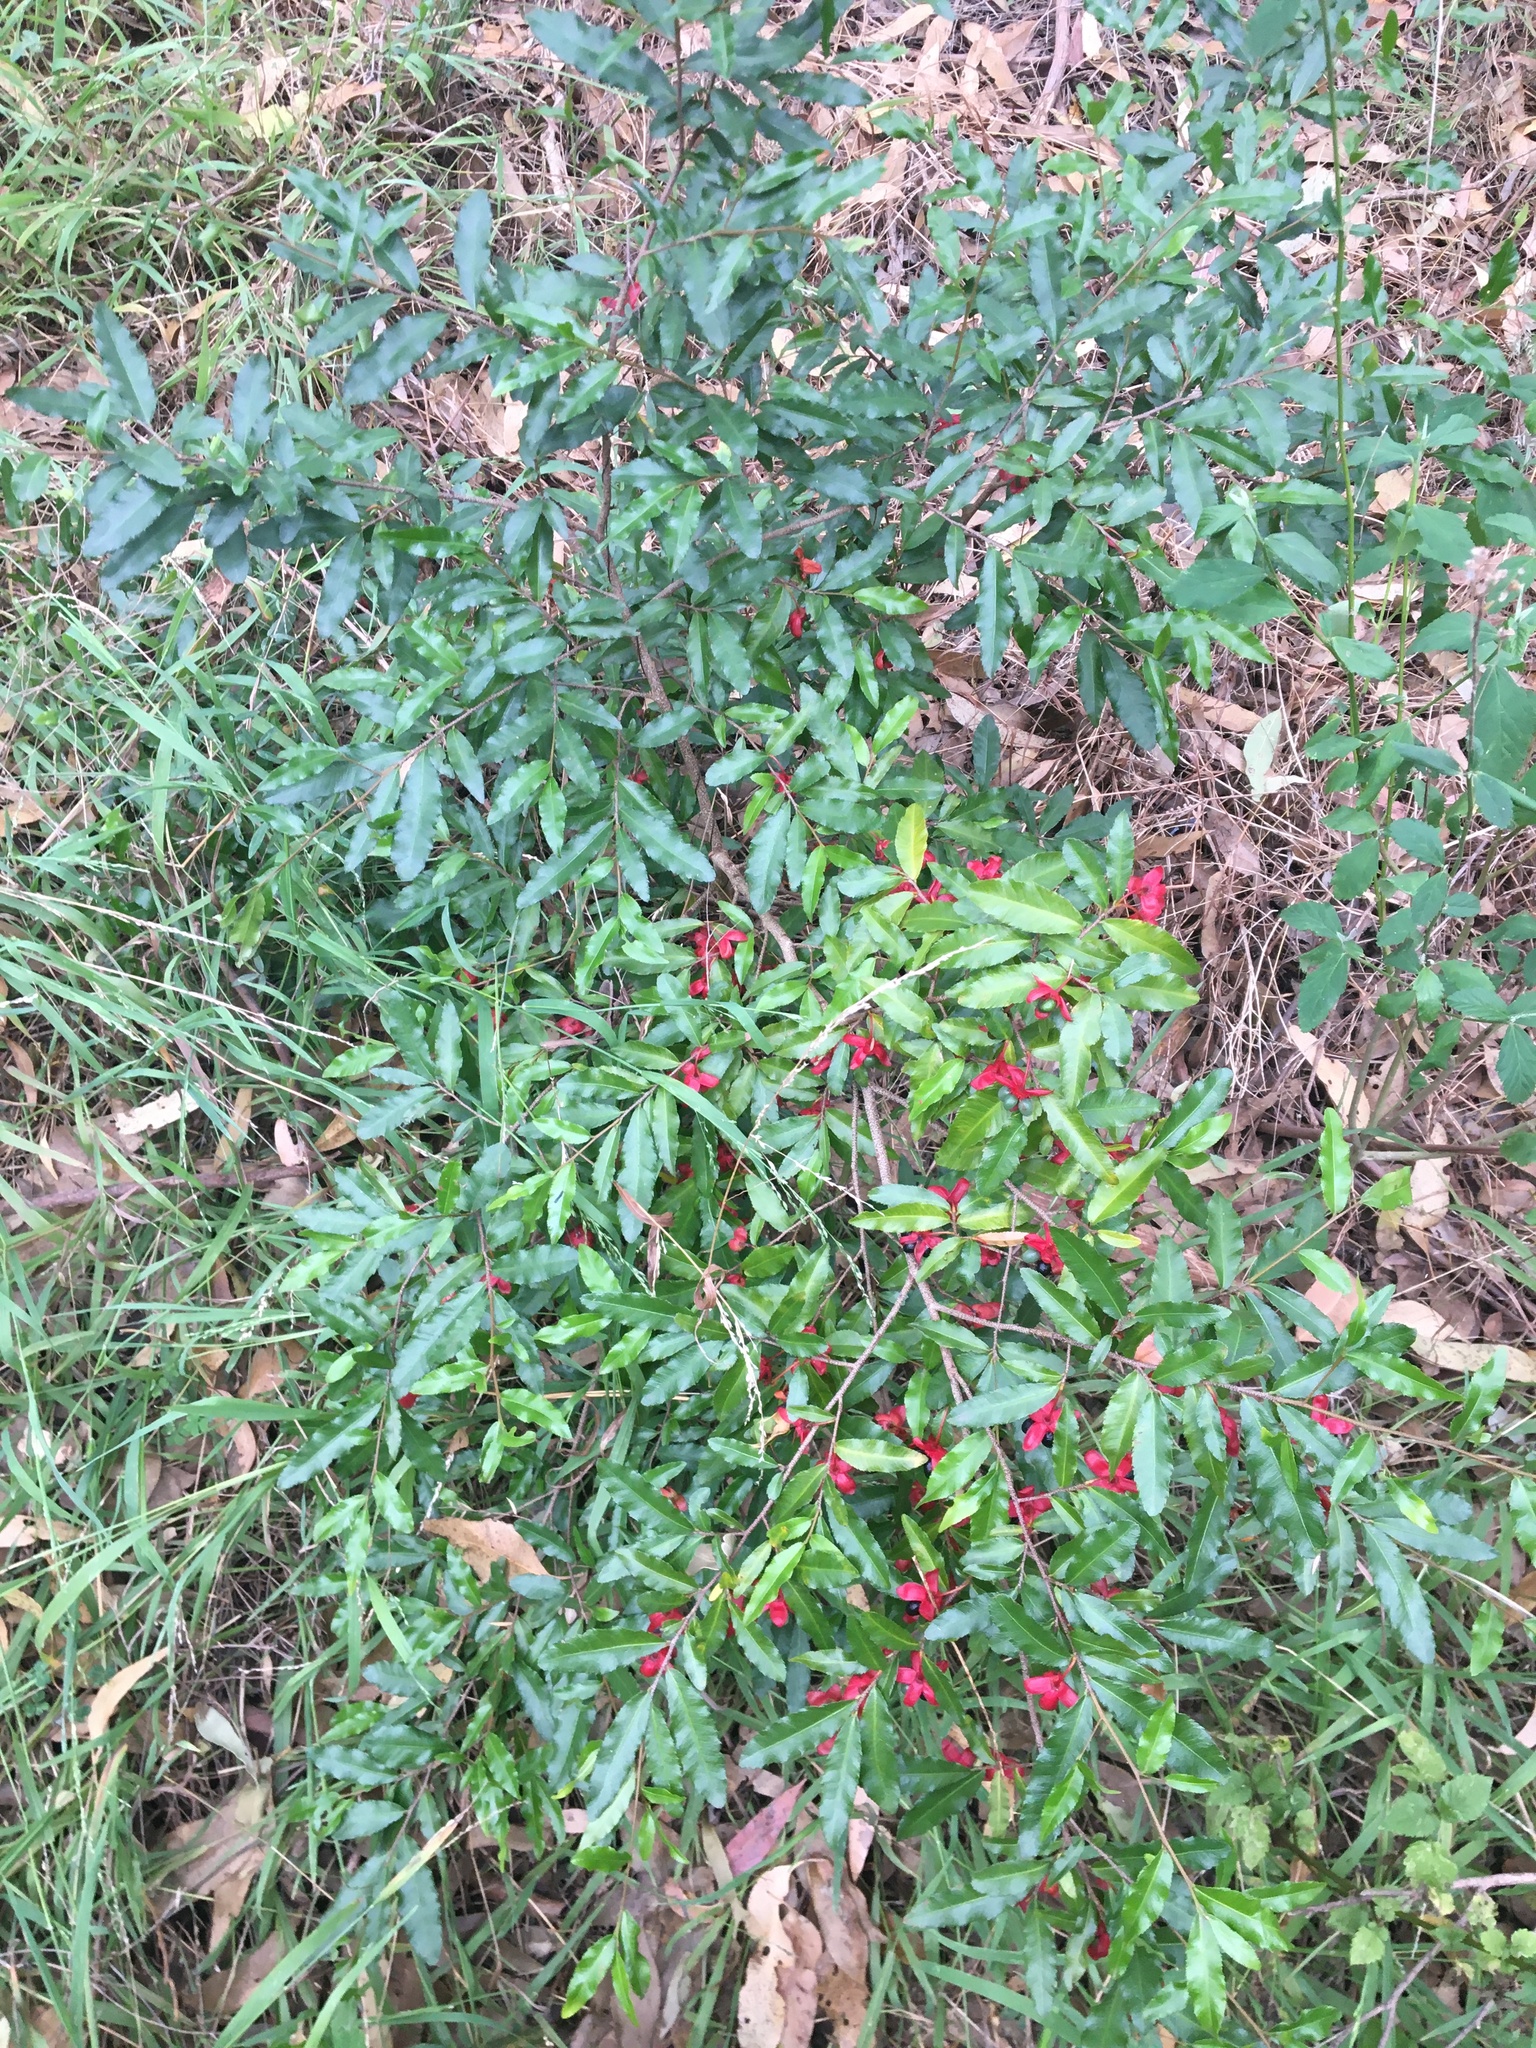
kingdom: Plantae
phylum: Tracheophyta
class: Magnoliopsida
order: Malpighiales
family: Ochnaceae
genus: Ochna
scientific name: Ochna serrulata
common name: Mickey mouse plant
